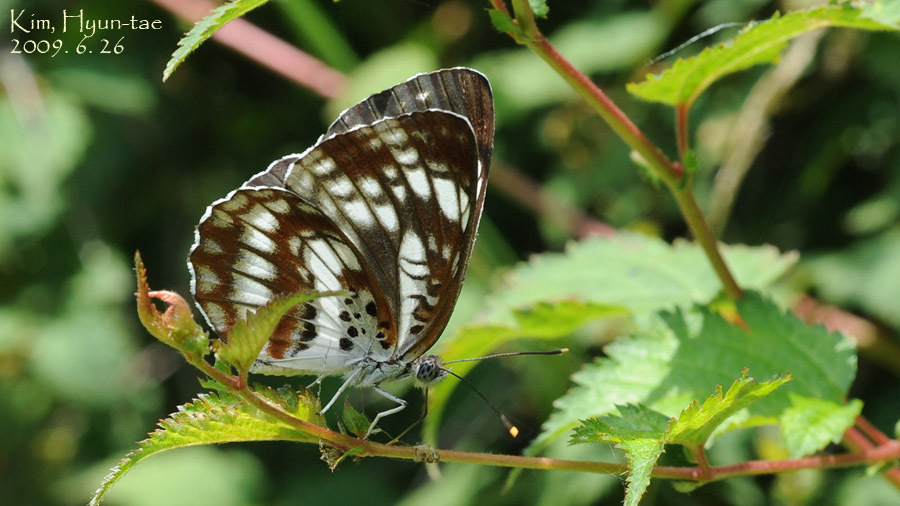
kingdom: Animalia
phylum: Arthropoda
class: Insecta
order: Lepidoptera
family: Nymphalidae
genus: Neptis
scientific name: Neptis pryeri
